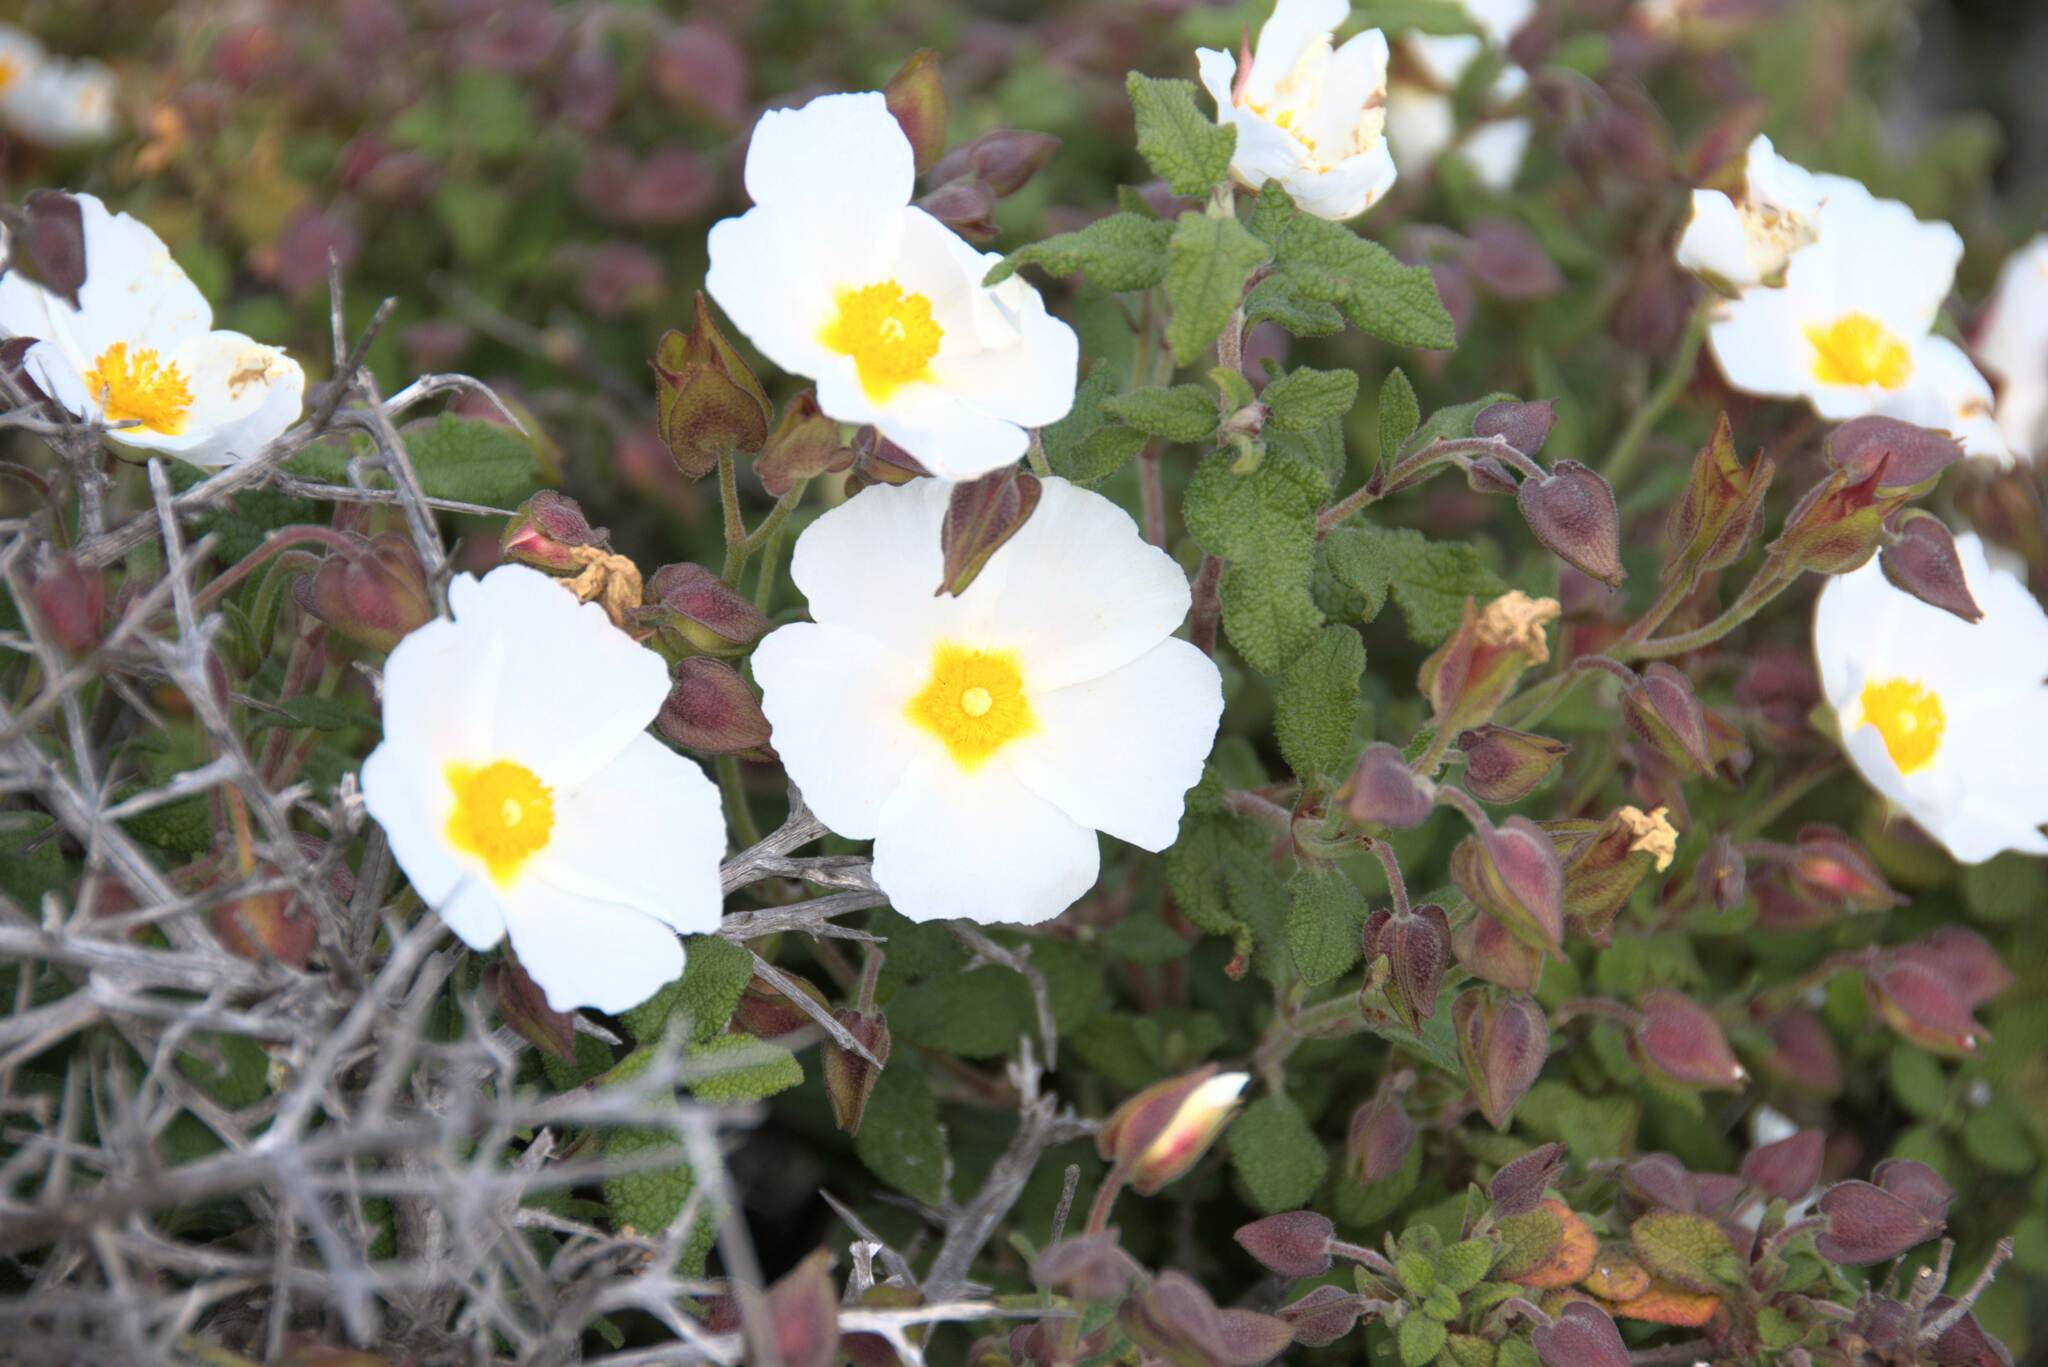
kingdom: Plantae
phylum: Tracheophyta
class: Magnoliopsida
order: Malvales
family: Cistaceae
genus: Cistus
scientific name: Cistus salviifolius
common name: Salvia cistus
